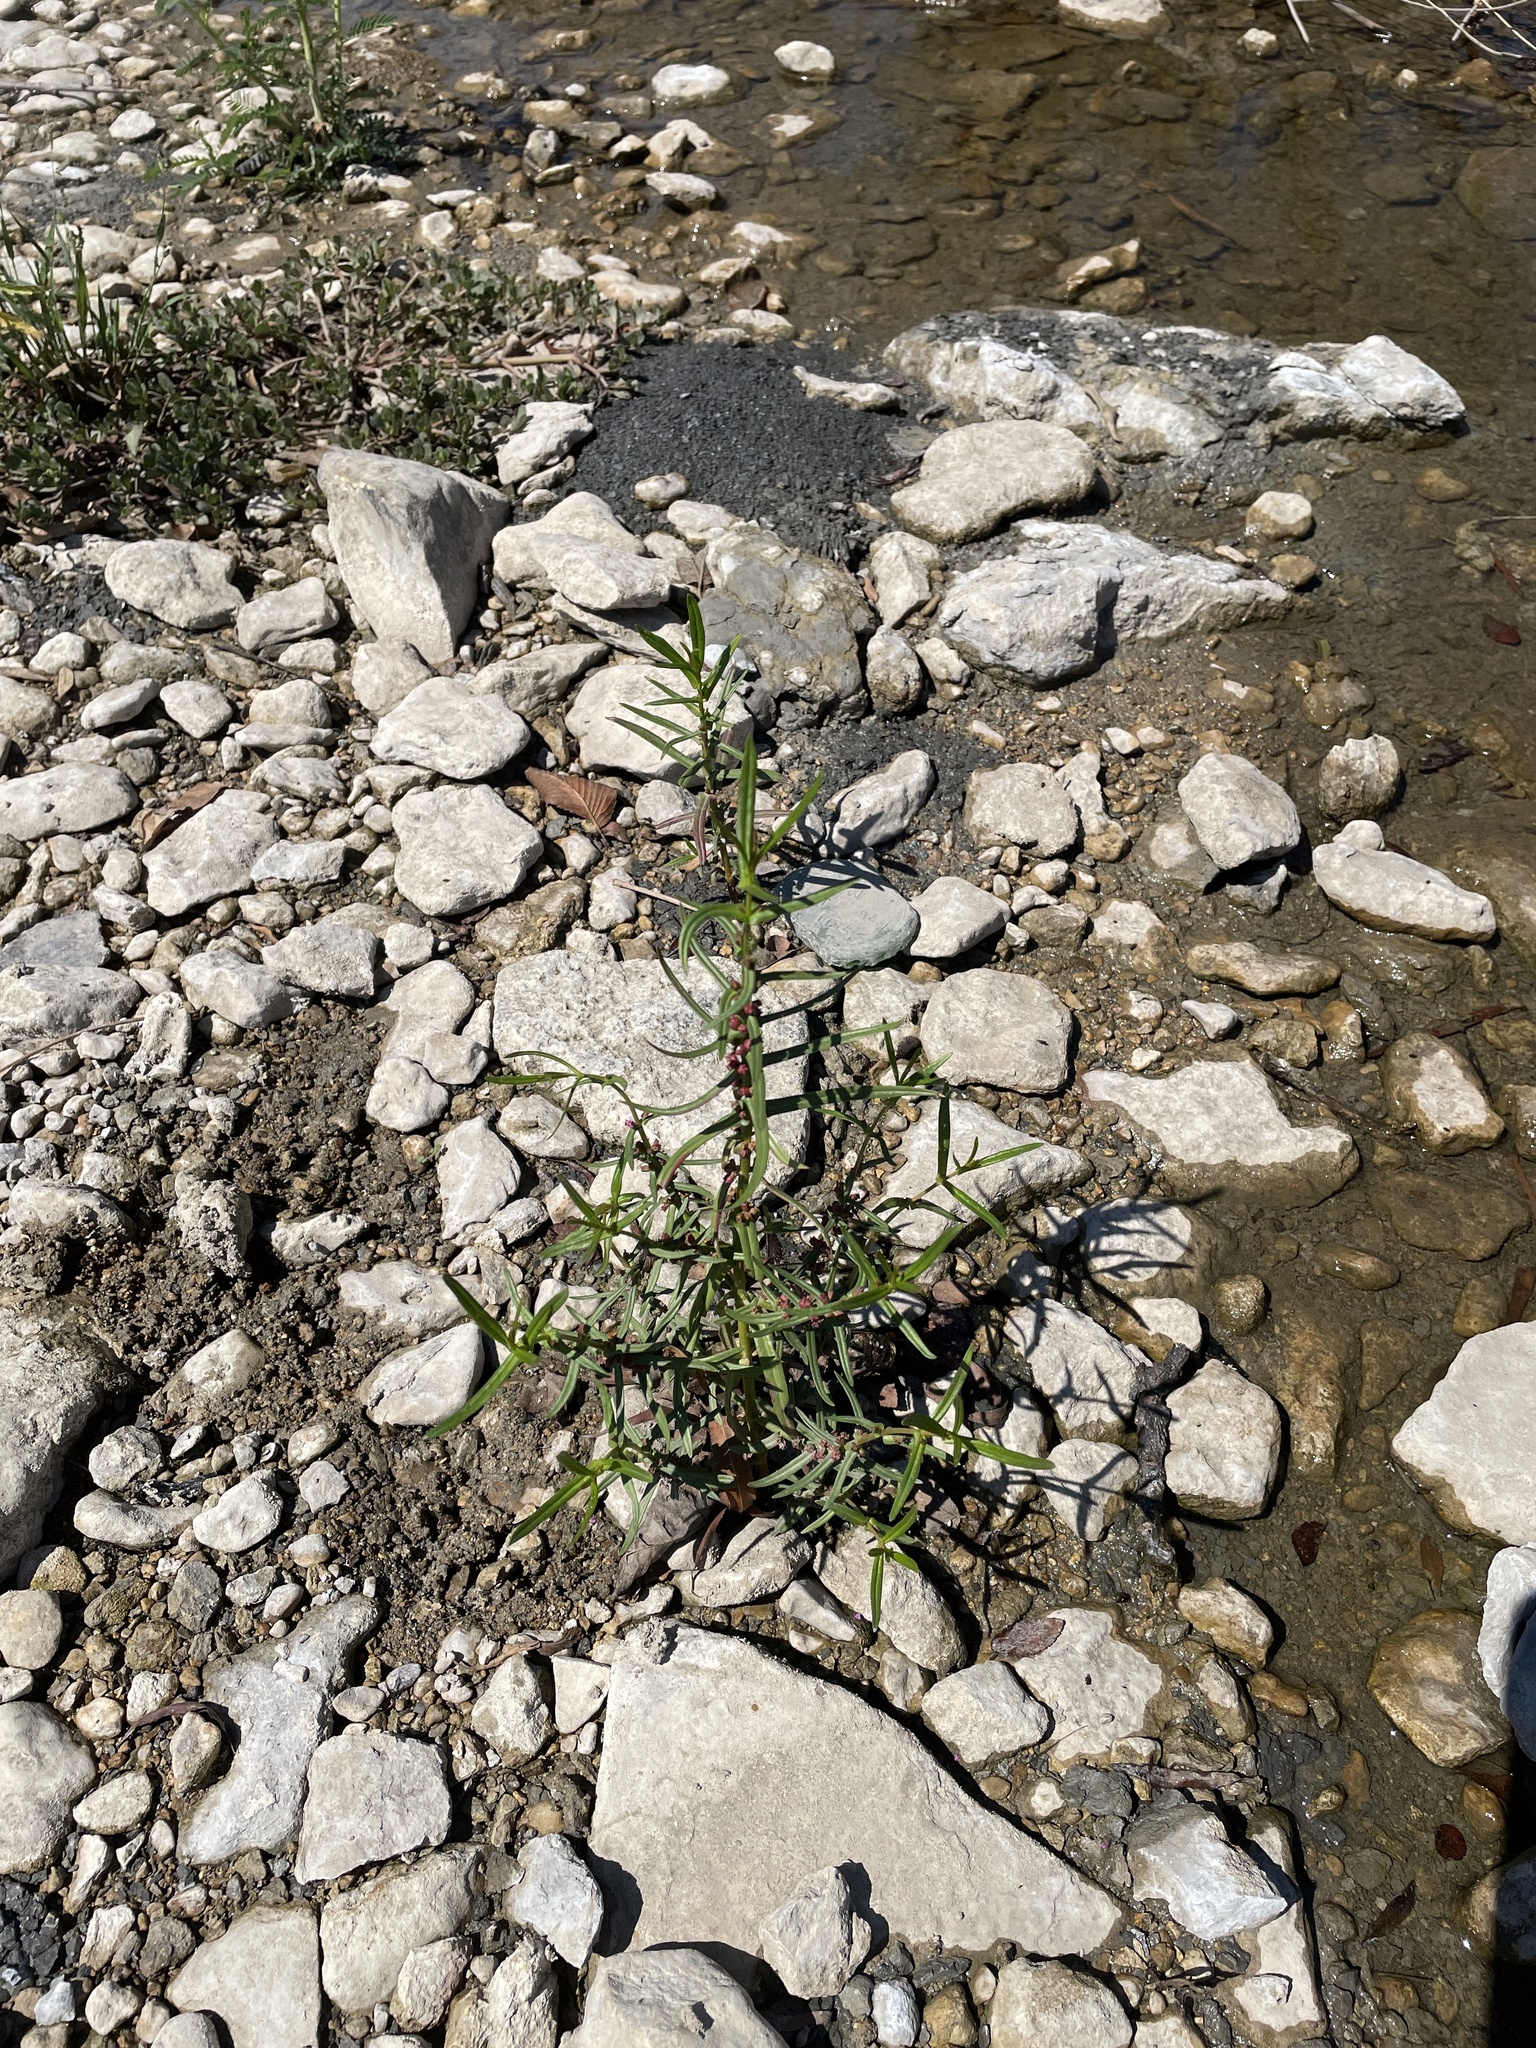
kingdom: Plantae
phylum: Tracheophyta
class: Magnoliopsida
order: Myrtales
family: Lythraceae
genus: Ammannia
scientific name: Ammannia coccinea
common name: Valley redstem
